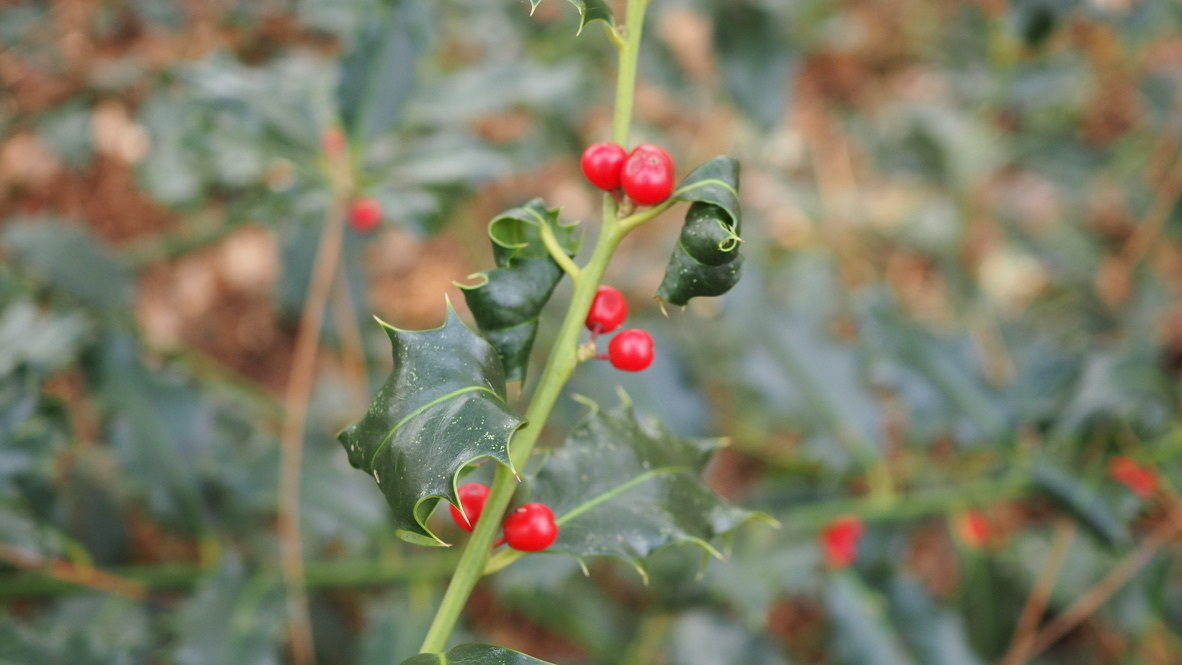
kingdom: Plantae
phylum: Tracheophyta
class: Magnoliopsida
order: Aquifoliales
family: Aquifoliaceae
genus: Ilex
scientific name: Ilex aquifolium
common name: English holly
